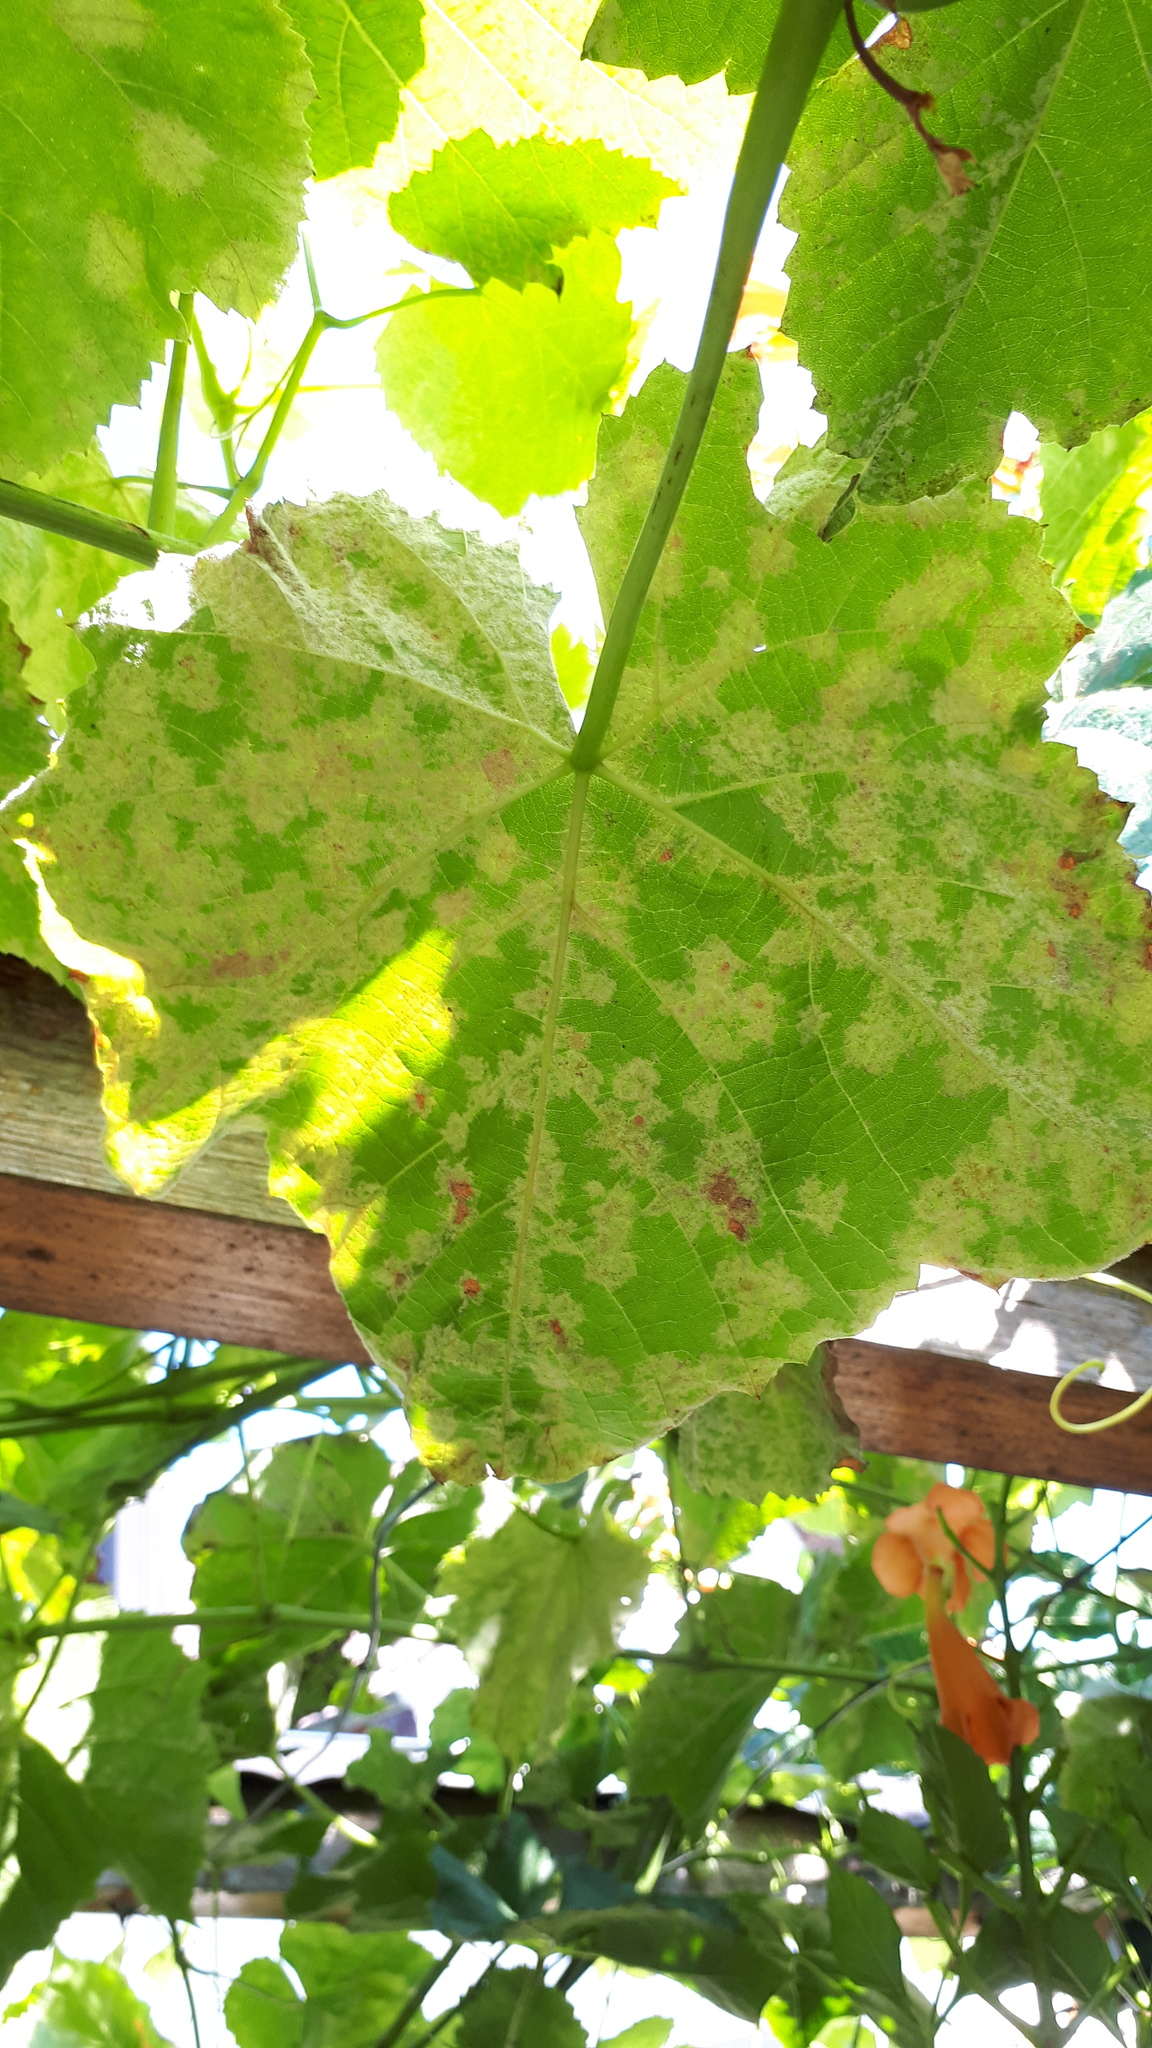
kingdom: Chromista
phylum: Oomycota
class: Peronosporea
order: Peronosporales
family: Peronosporaceae
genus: Plasmopara
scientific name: Plasmopara viticola
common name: Grapevine downy mildew
